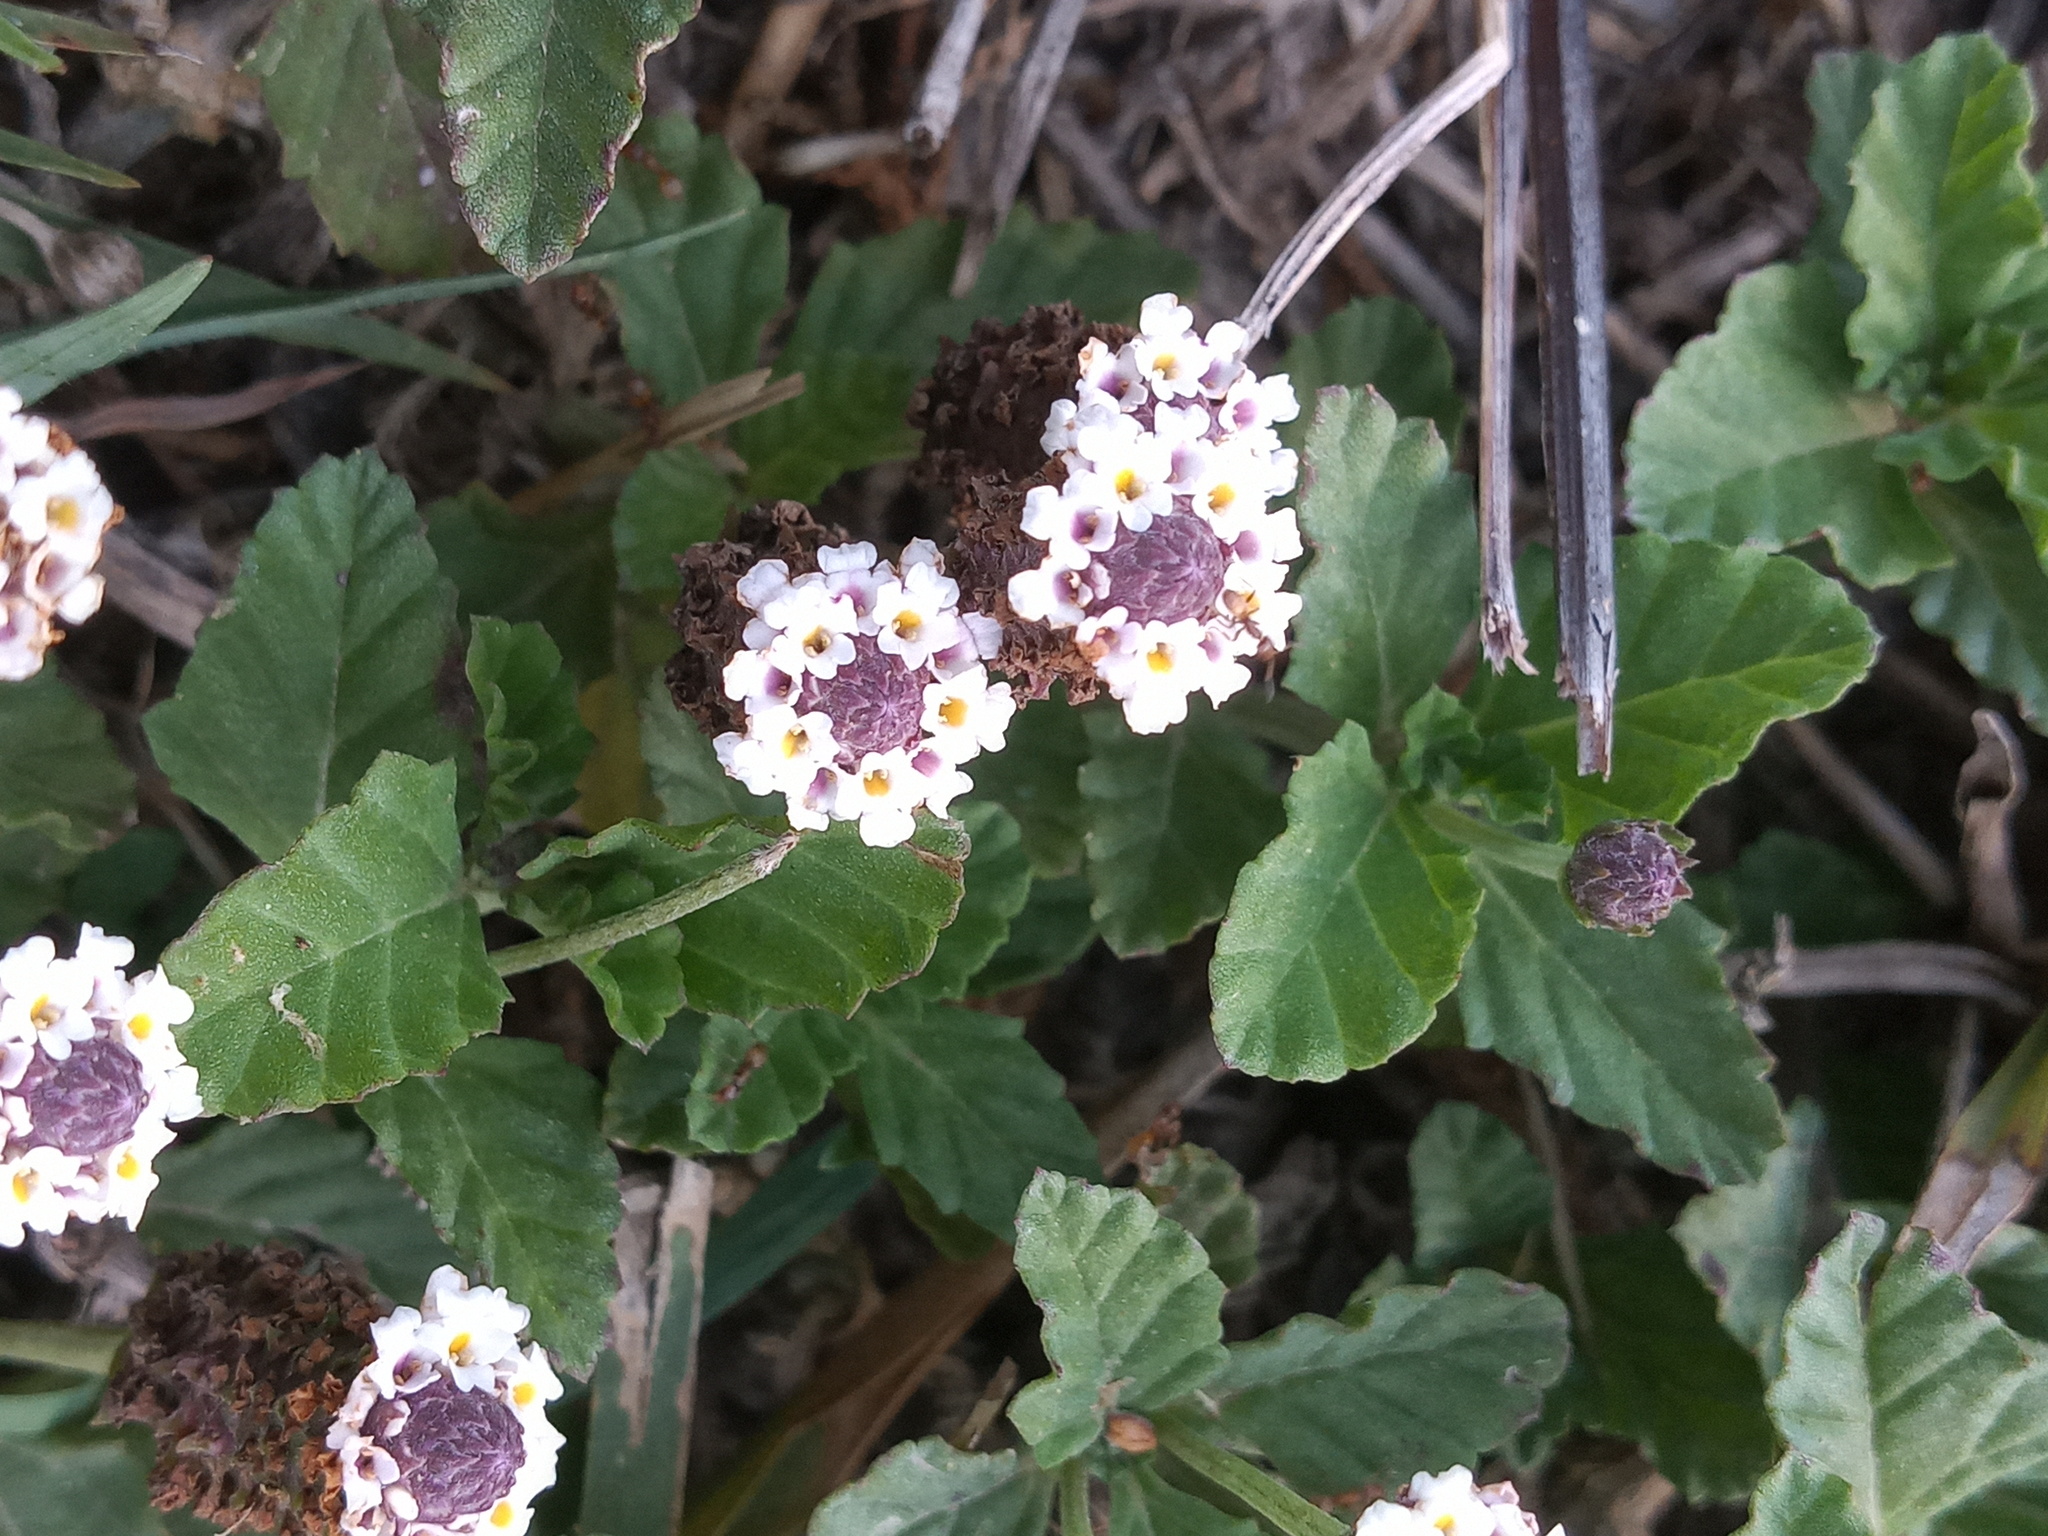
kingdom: Plantae
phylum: Tracheophyta
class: Magnoliopsida
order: Lamiales
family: Verbenaceae
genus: Phyla
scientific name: Phyla nodiflora
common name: Frogfruit
